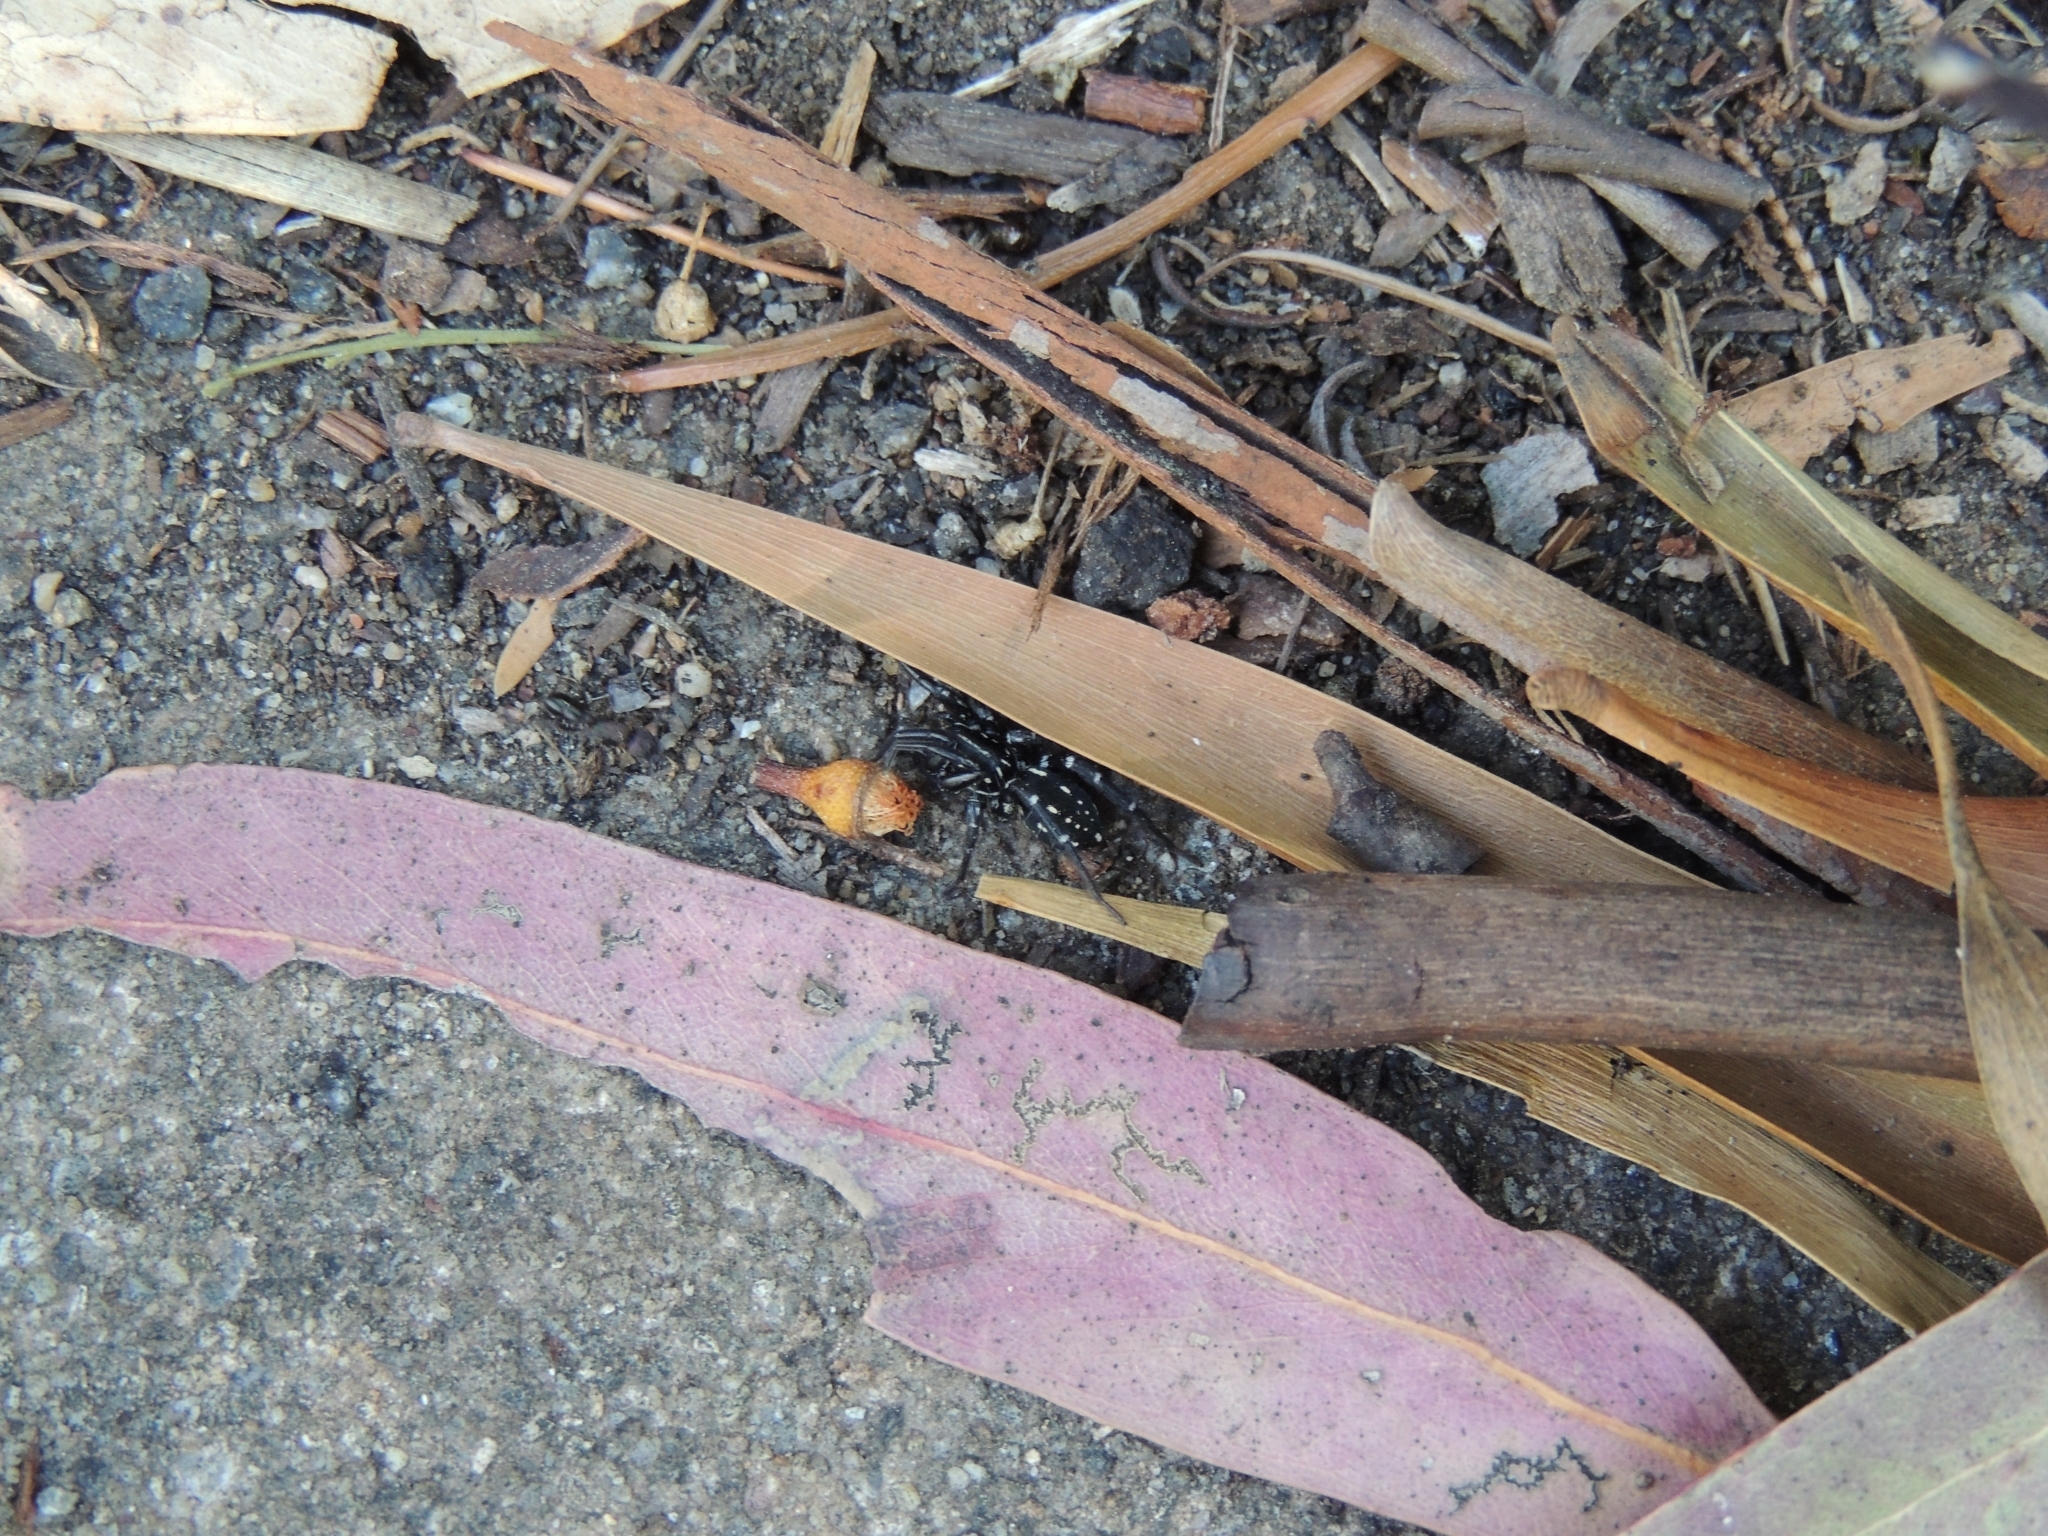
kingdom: Animalia
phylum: Arthropoda
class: Arachnida
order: Araneae
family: Corinnidae
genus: Nyssus
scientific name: Nyssus albopunctatus
